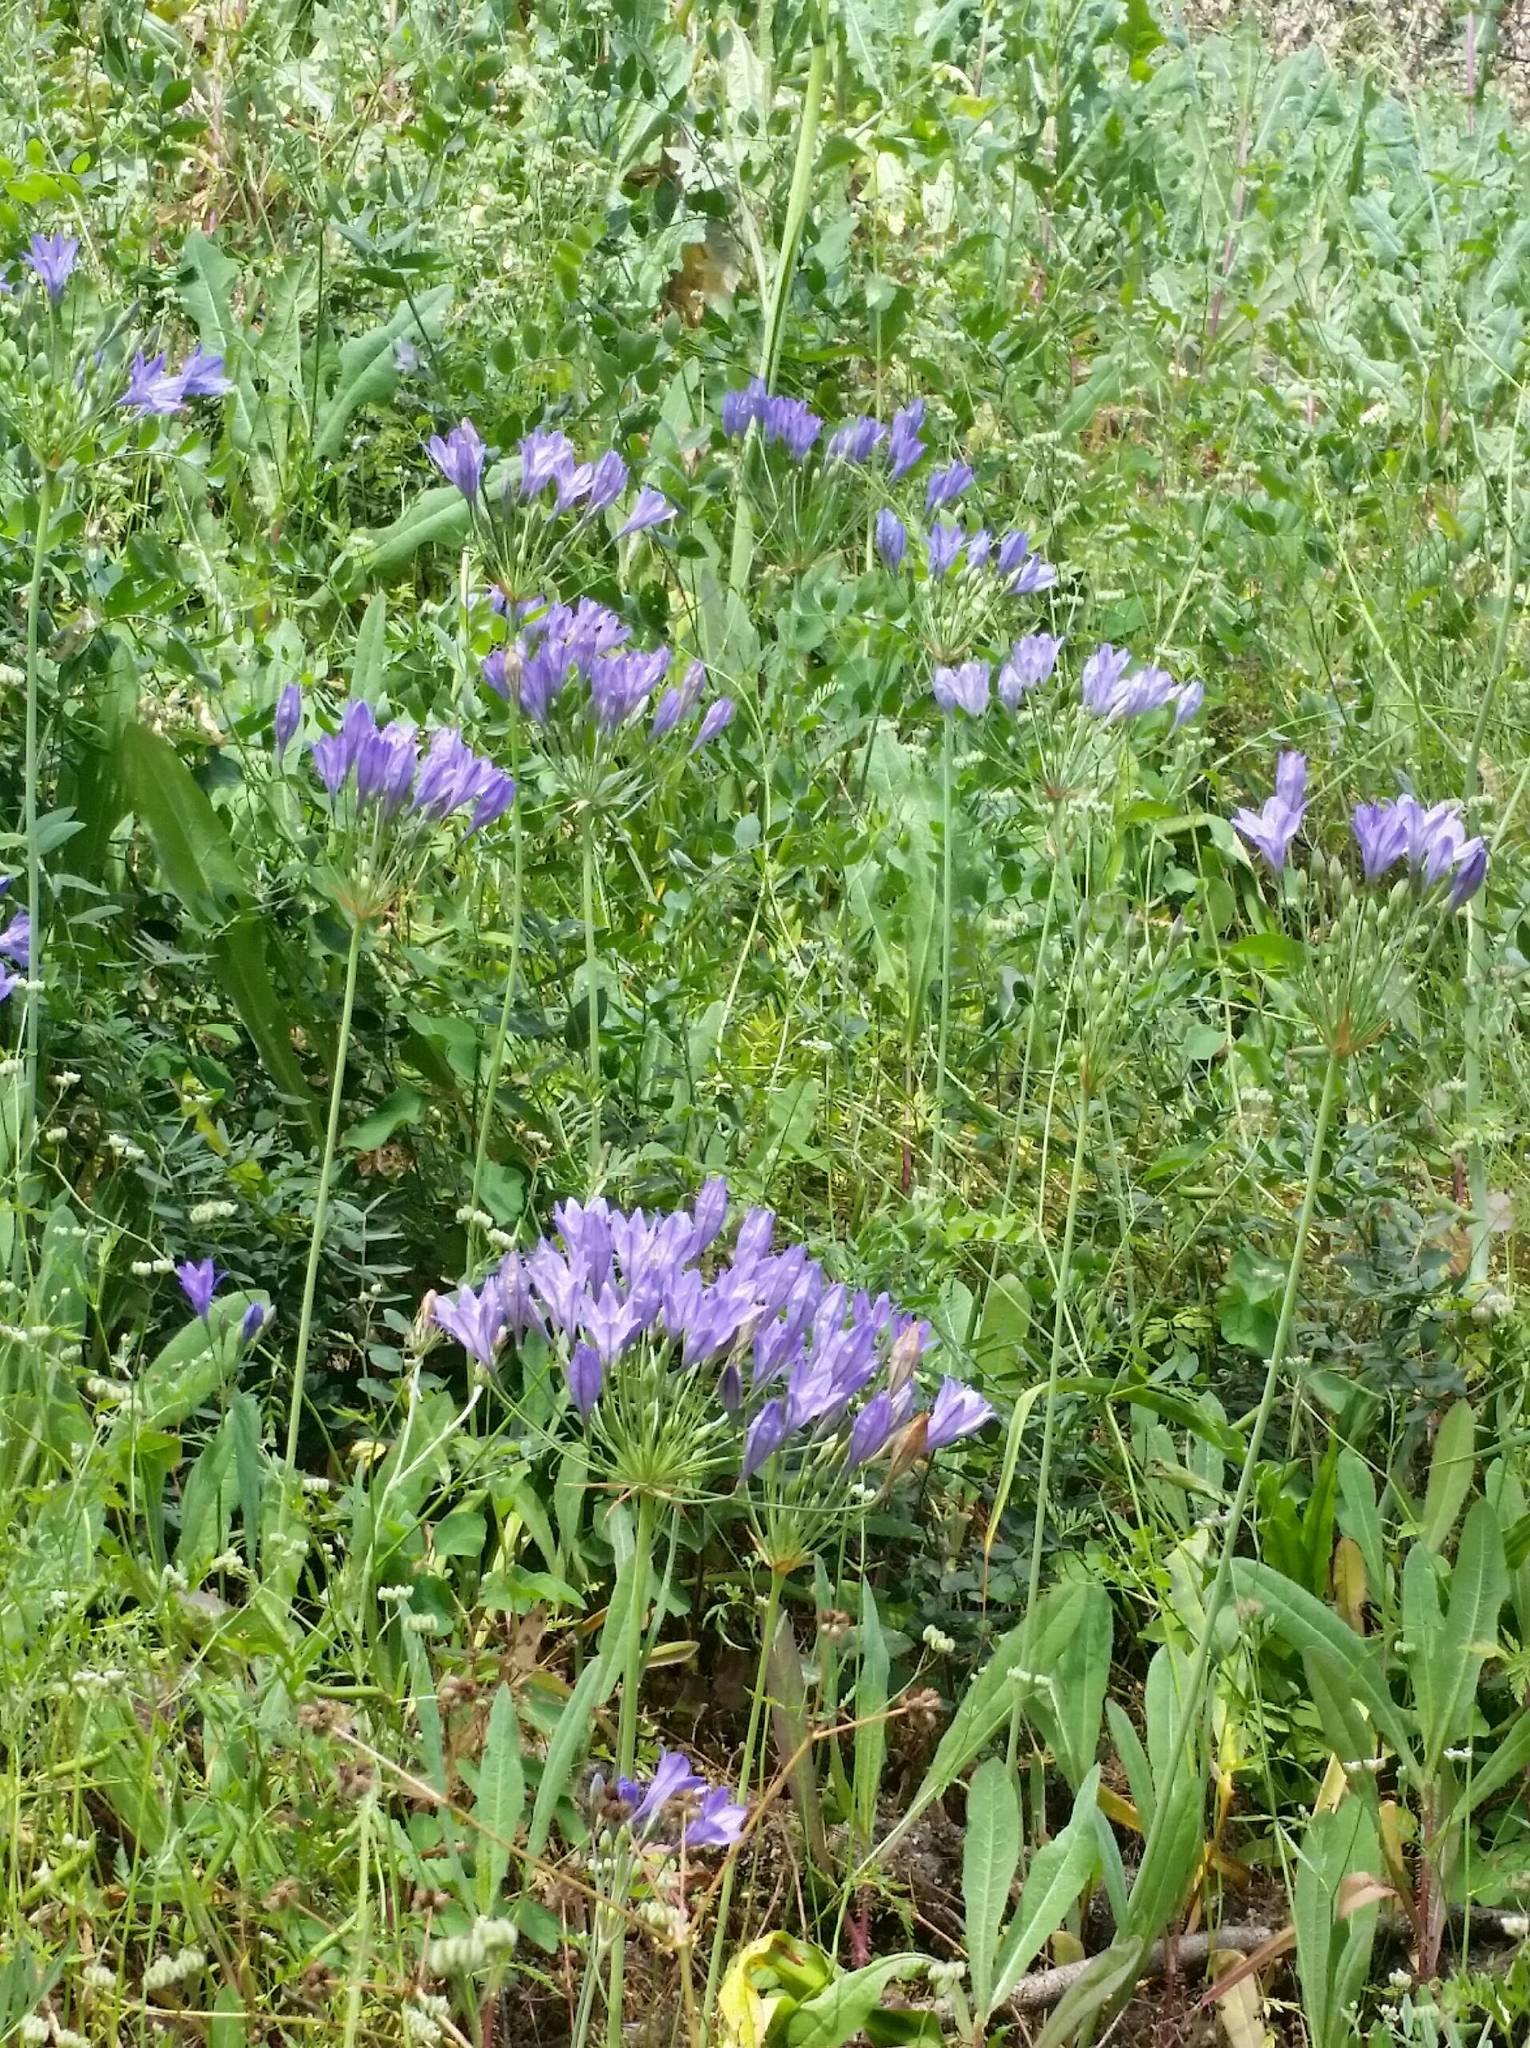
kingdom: Plantae
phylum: Tracheophyta
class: Liliopsida
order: Asparagales
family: Asparagaceae
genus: Triteleia
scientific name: Triteleia laxa
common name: Triplet-lily
